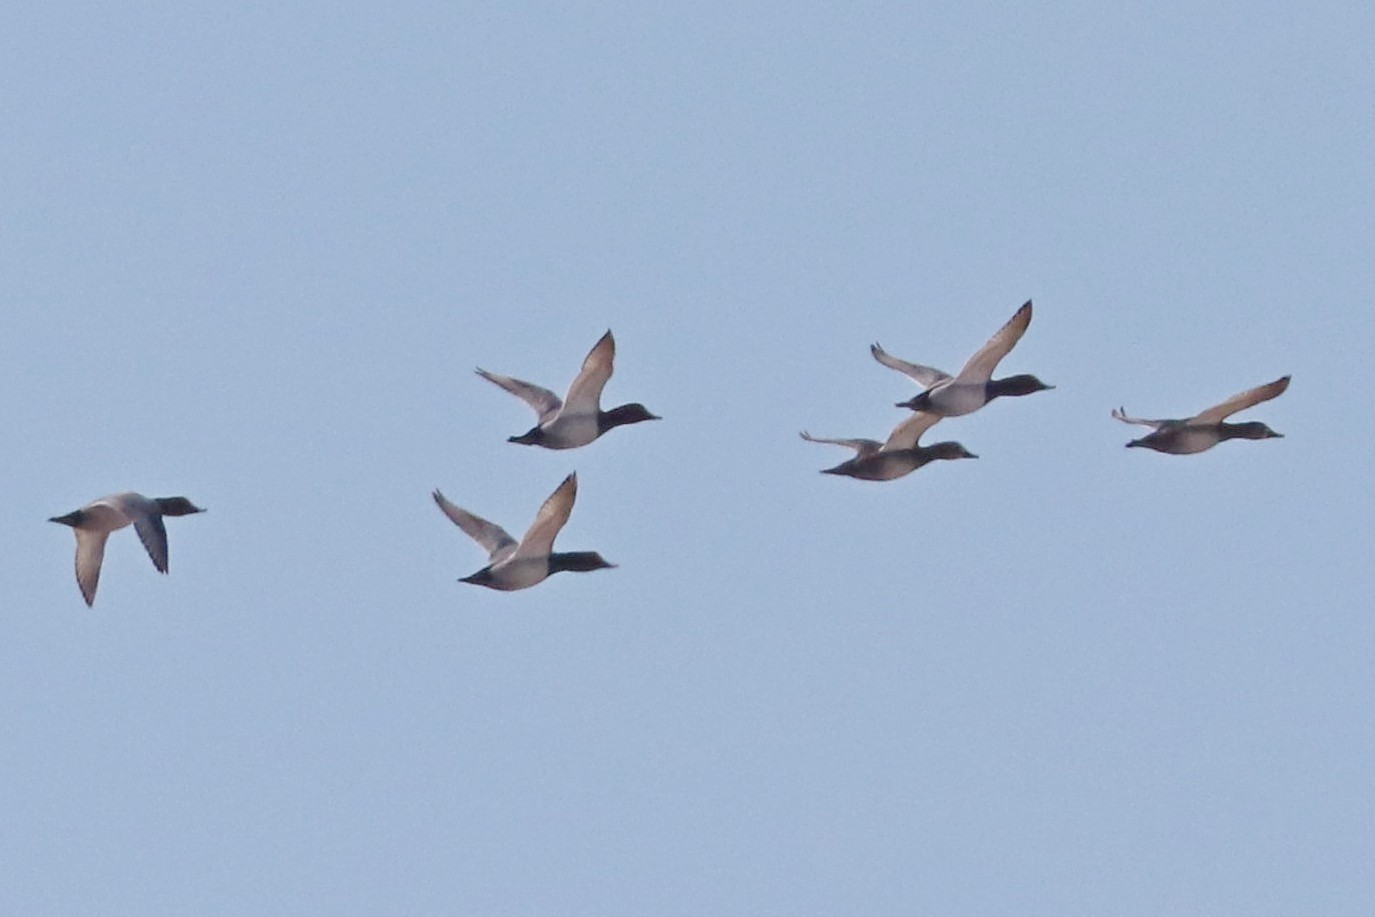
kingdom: Animalia
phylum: Chordata
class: Aves
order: Anseriformes
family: Anatidae
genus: Aythya
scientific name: Aythya ferina
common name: Common pochard
